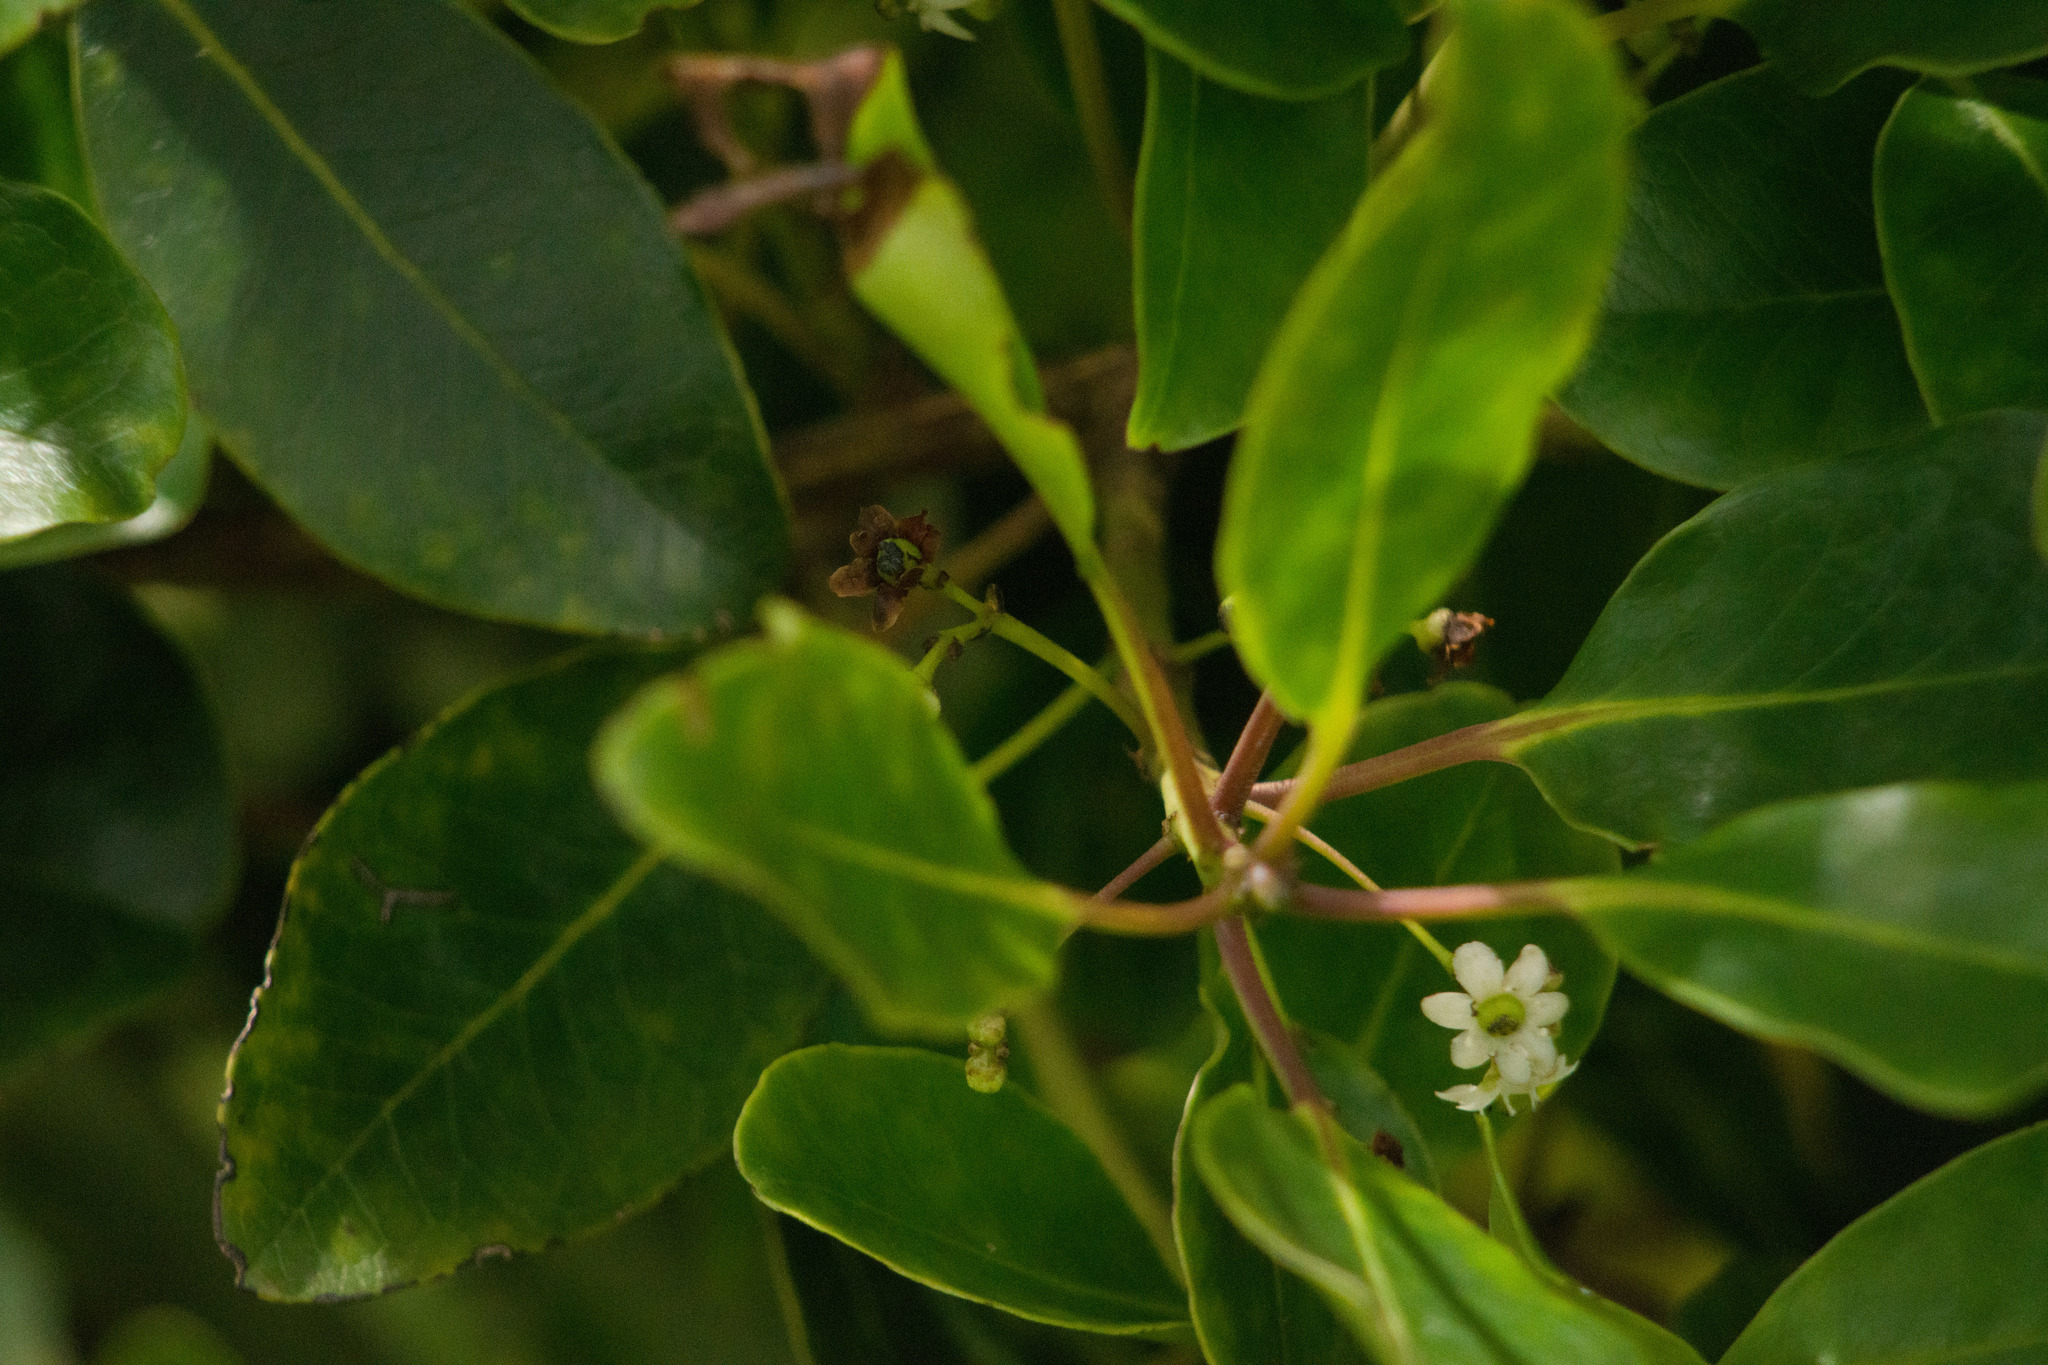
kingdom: Plantae
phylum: Tracheophyta
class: Magnoliopsida
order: Aquifoliales
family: Aquifoliaceae
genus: Ilex
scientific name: Ilex anomala
